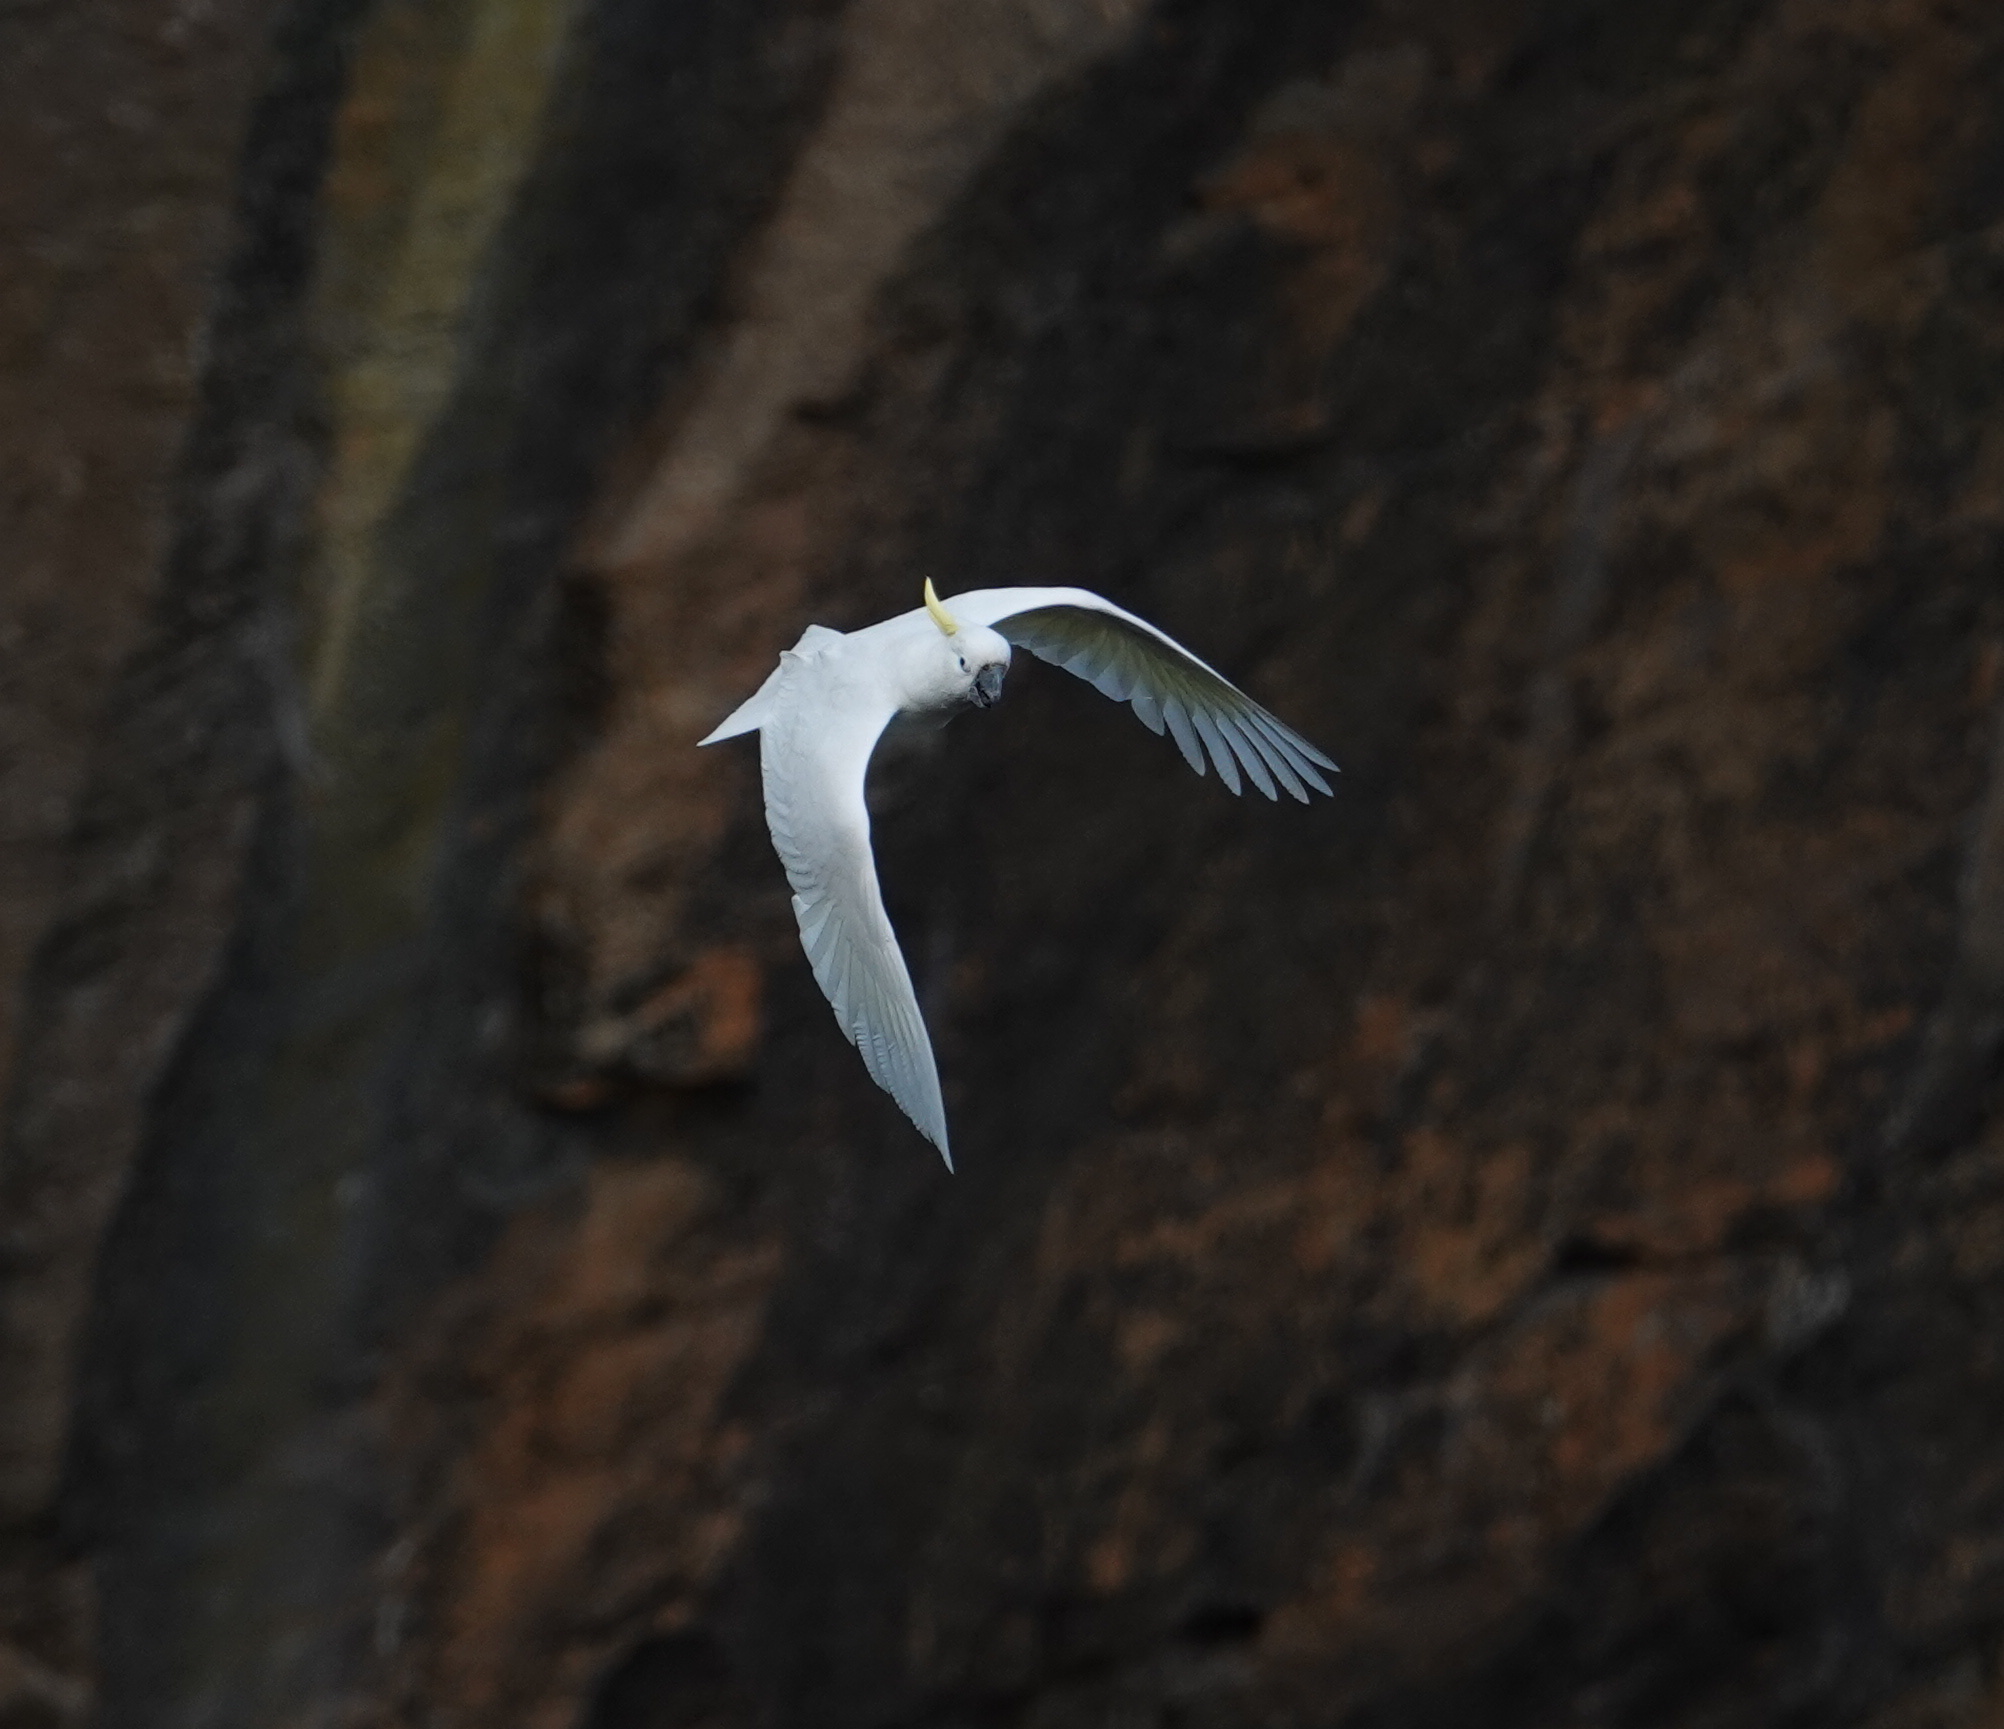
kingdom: Animalia
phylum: Chordata
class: Aves
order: Psittaciformes
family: Psittacidae
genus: Cacatua
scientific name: Cacatua galerita
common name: Sulphur-crested cockatoo
